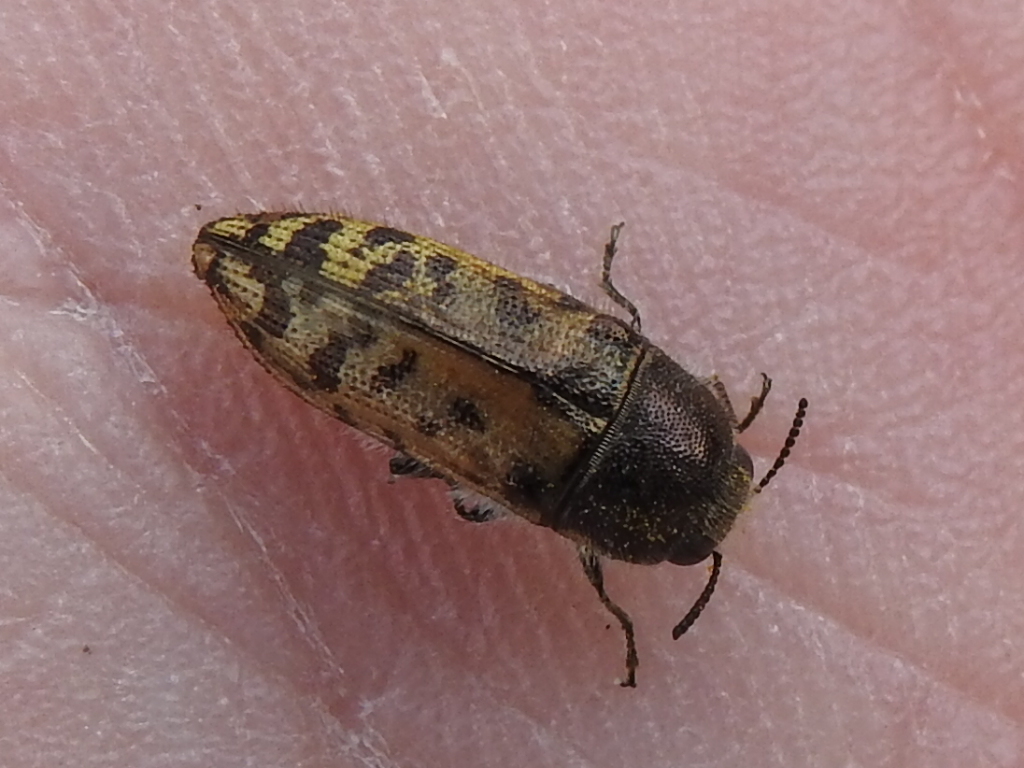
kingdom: Animalia
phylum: Arthropoda
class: Insecta
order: Coleoptera
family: Buprestidae
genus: Acmaeodera
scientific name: Acmaeodera mixta
